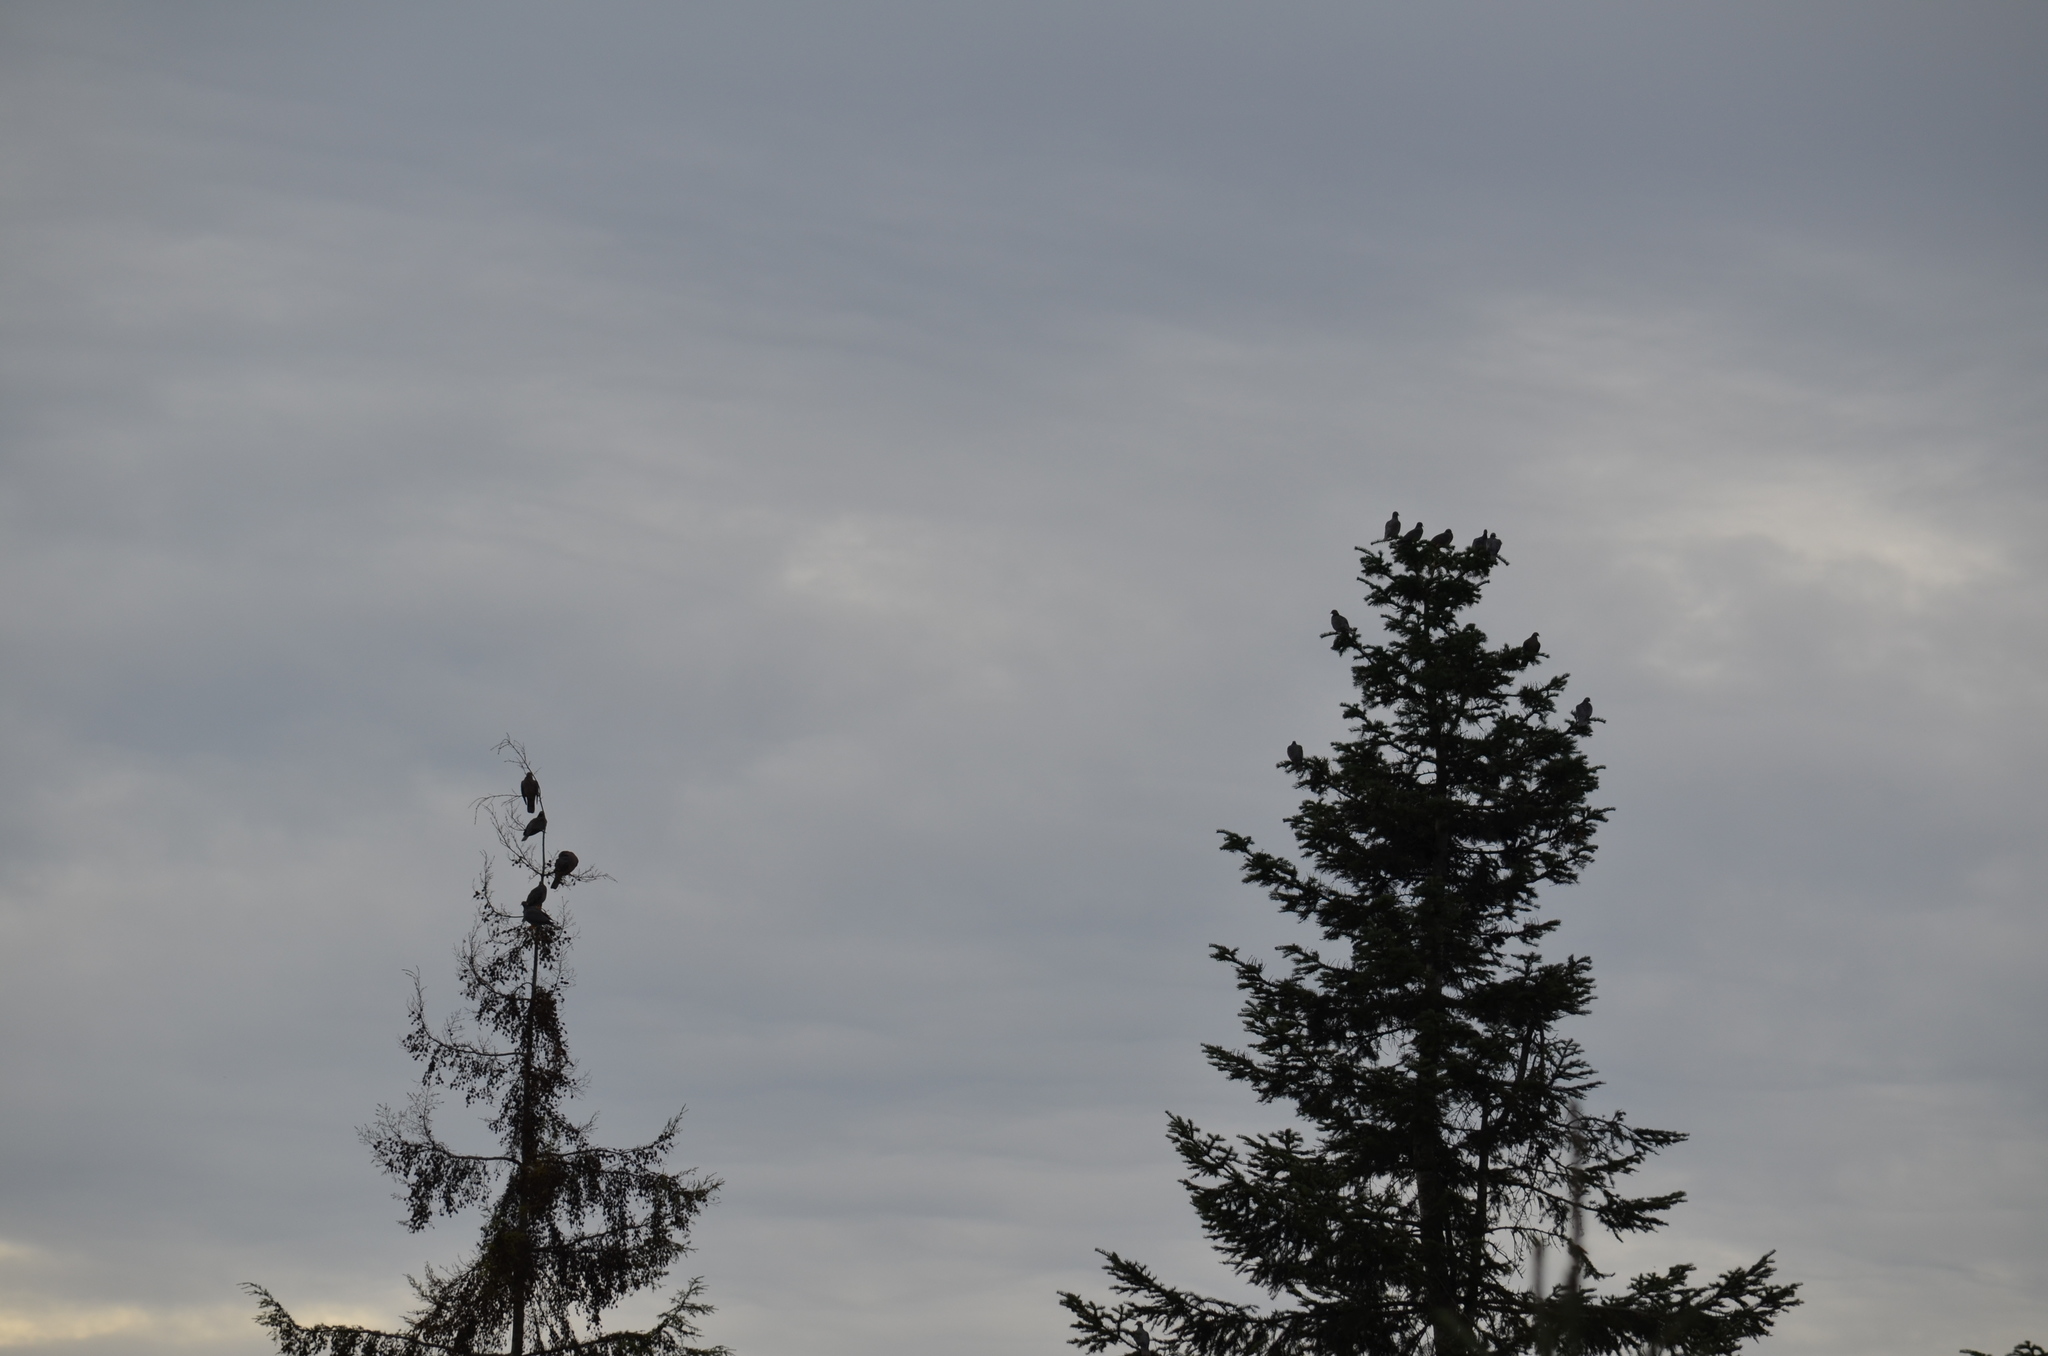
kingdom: Animalia
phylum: Chordata
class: Aves
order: Columbiformes
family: Columbidae
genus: Patagioenas
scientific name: Patagioenas fasciata
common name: Band-tailed pigeon
